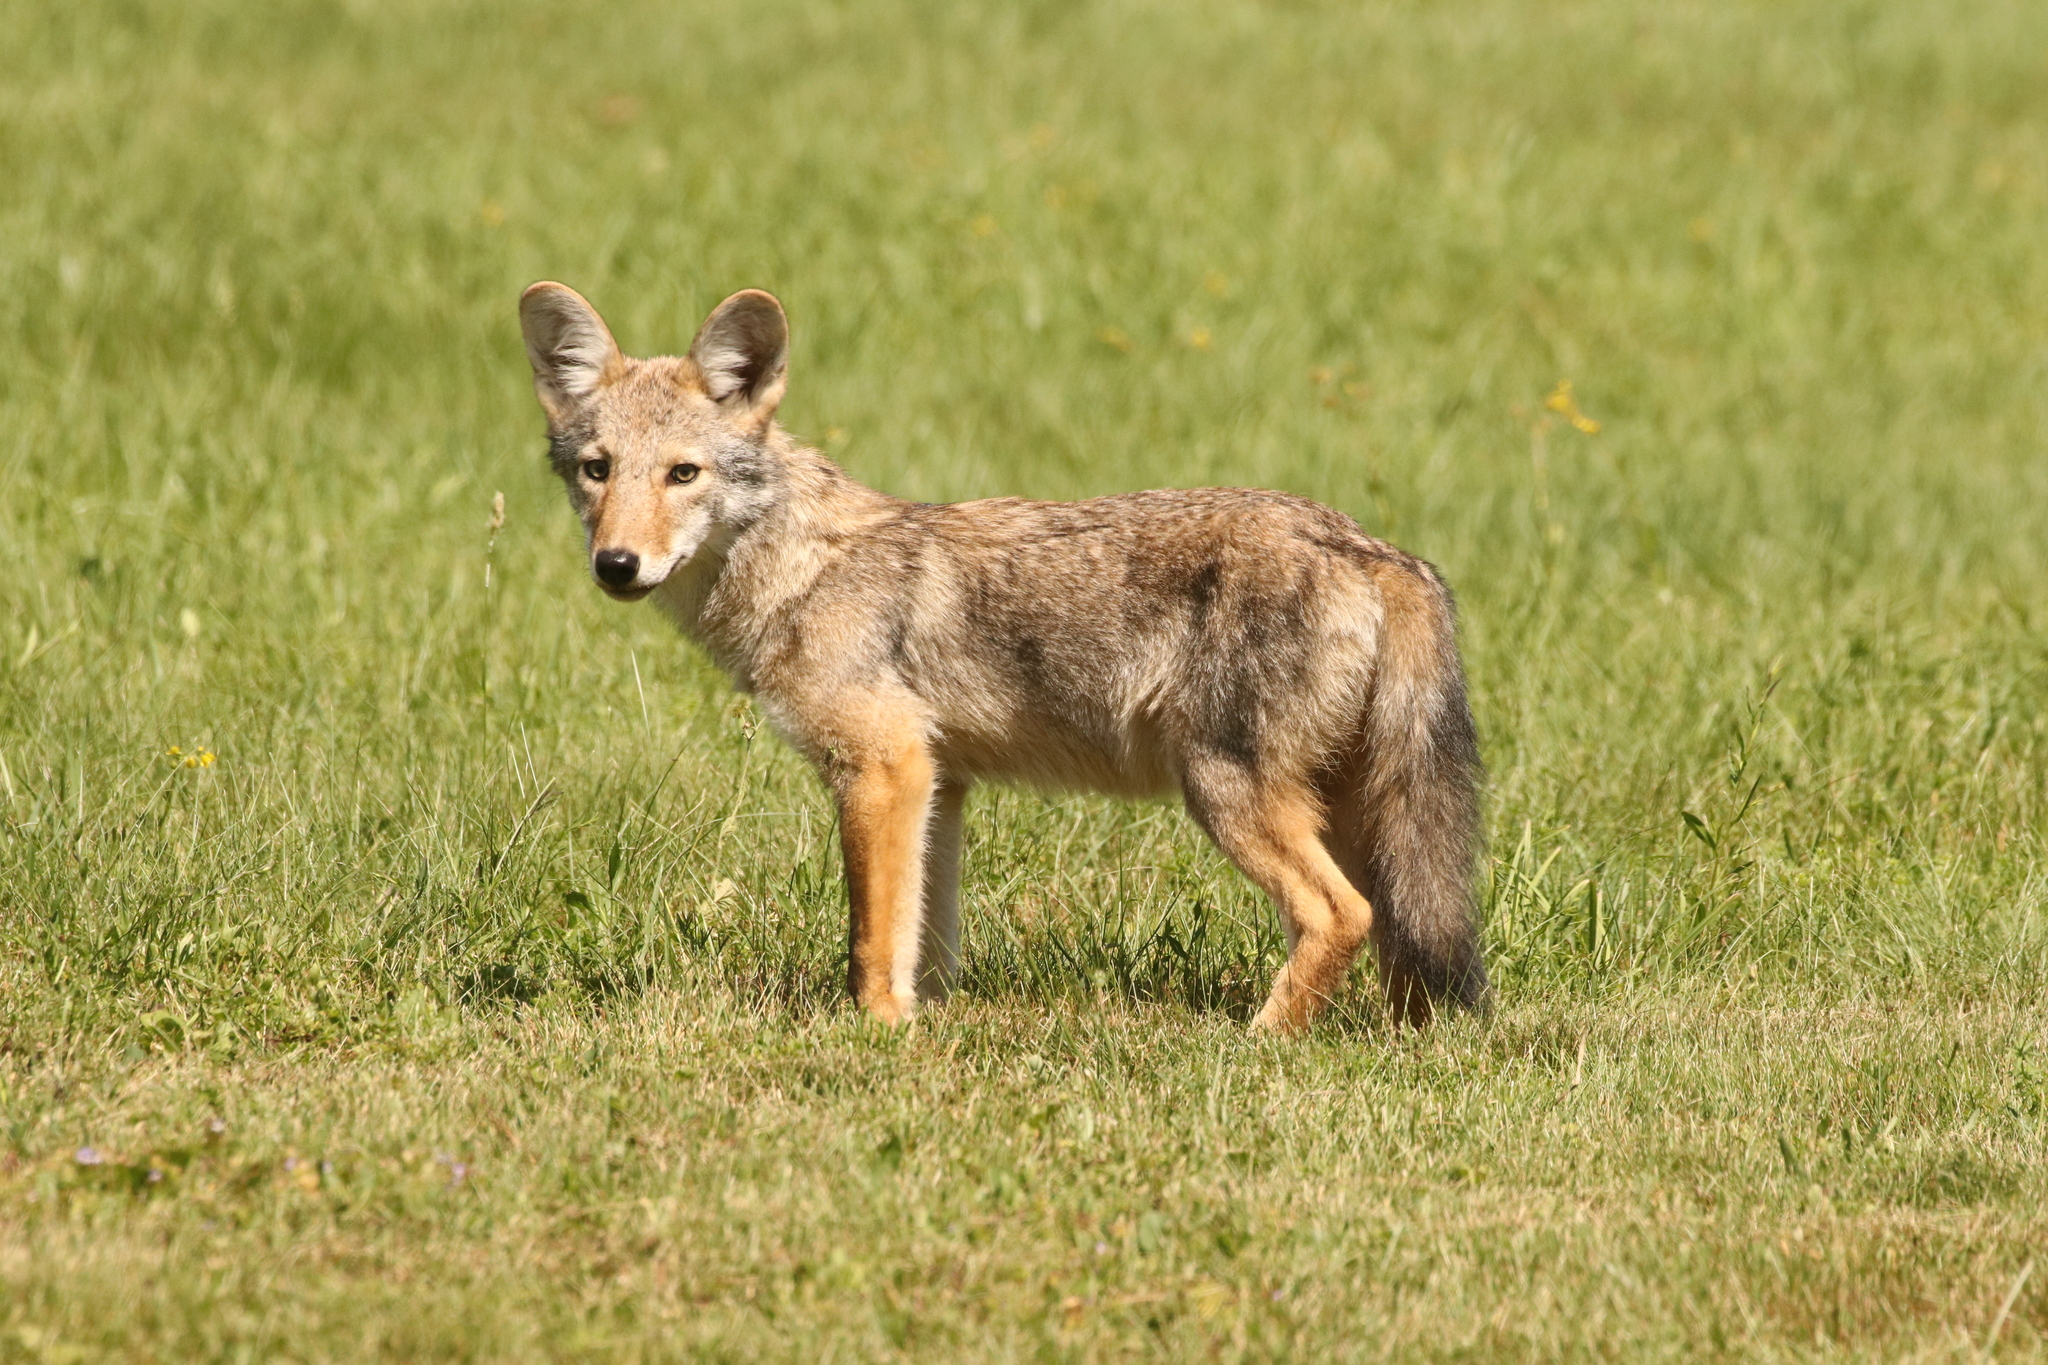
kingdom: Animalia
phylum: Chordata
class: Mammalia
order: Carnivora
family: Canidae
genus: Canis
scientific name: Canis latrans
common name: Coyote
